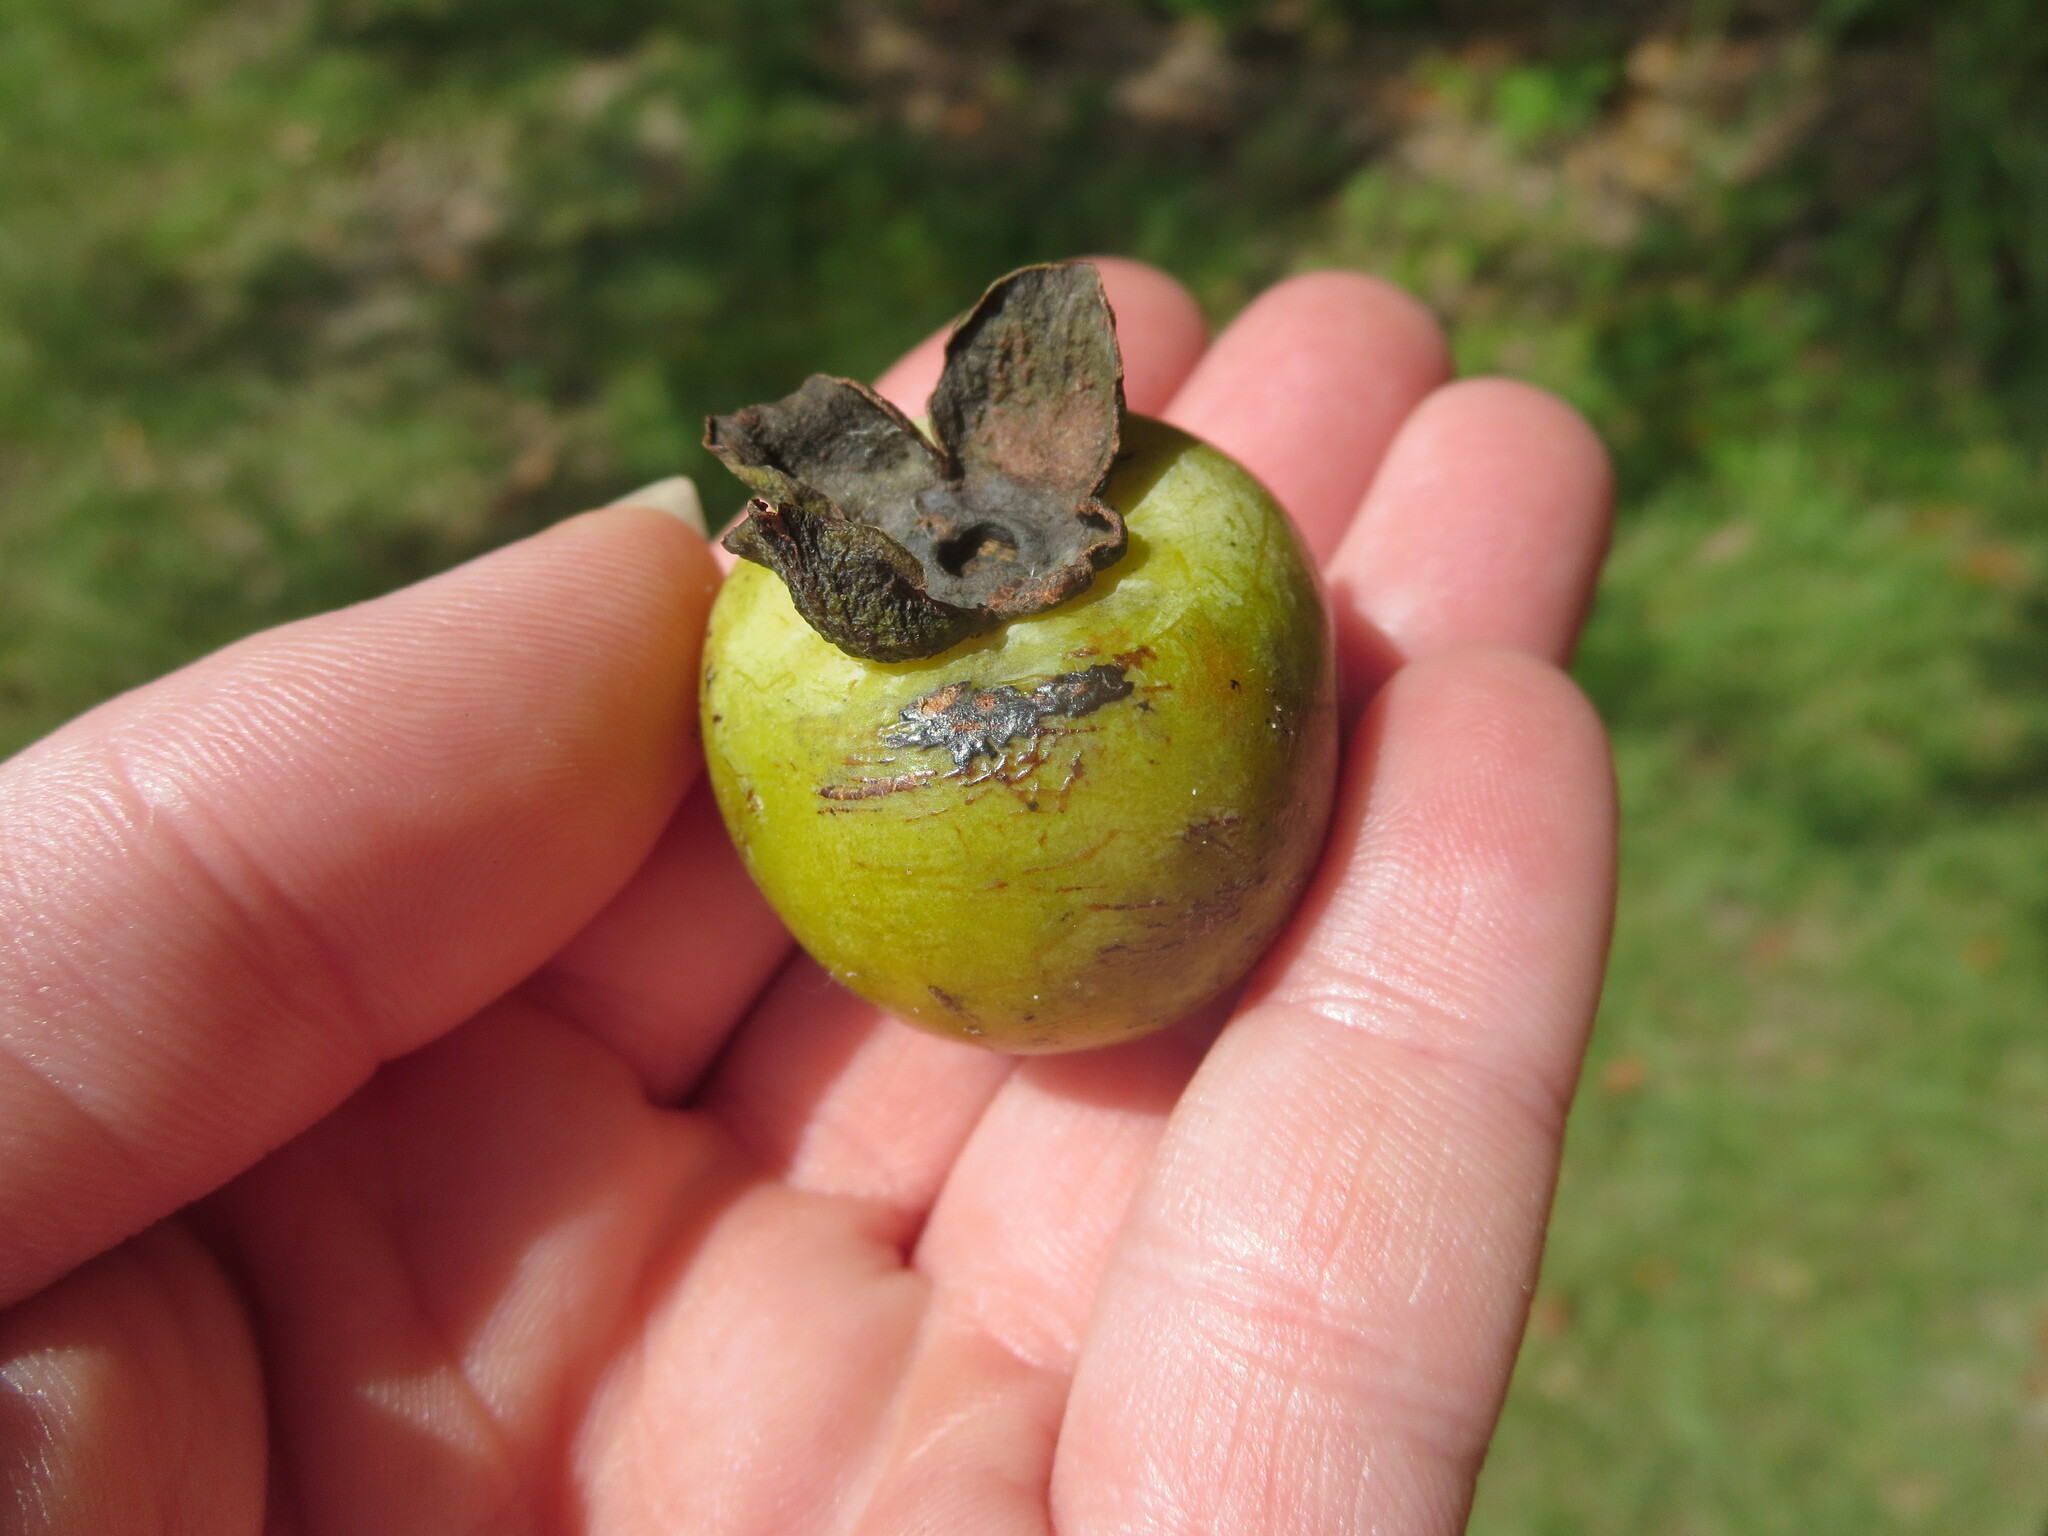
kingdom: Plantae
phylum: Tracheophyta
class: Magnoliopsida
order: Ericales
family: Ebenaceae
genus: Diospyros
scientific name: Diospyros virginiana
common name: Persimmon
